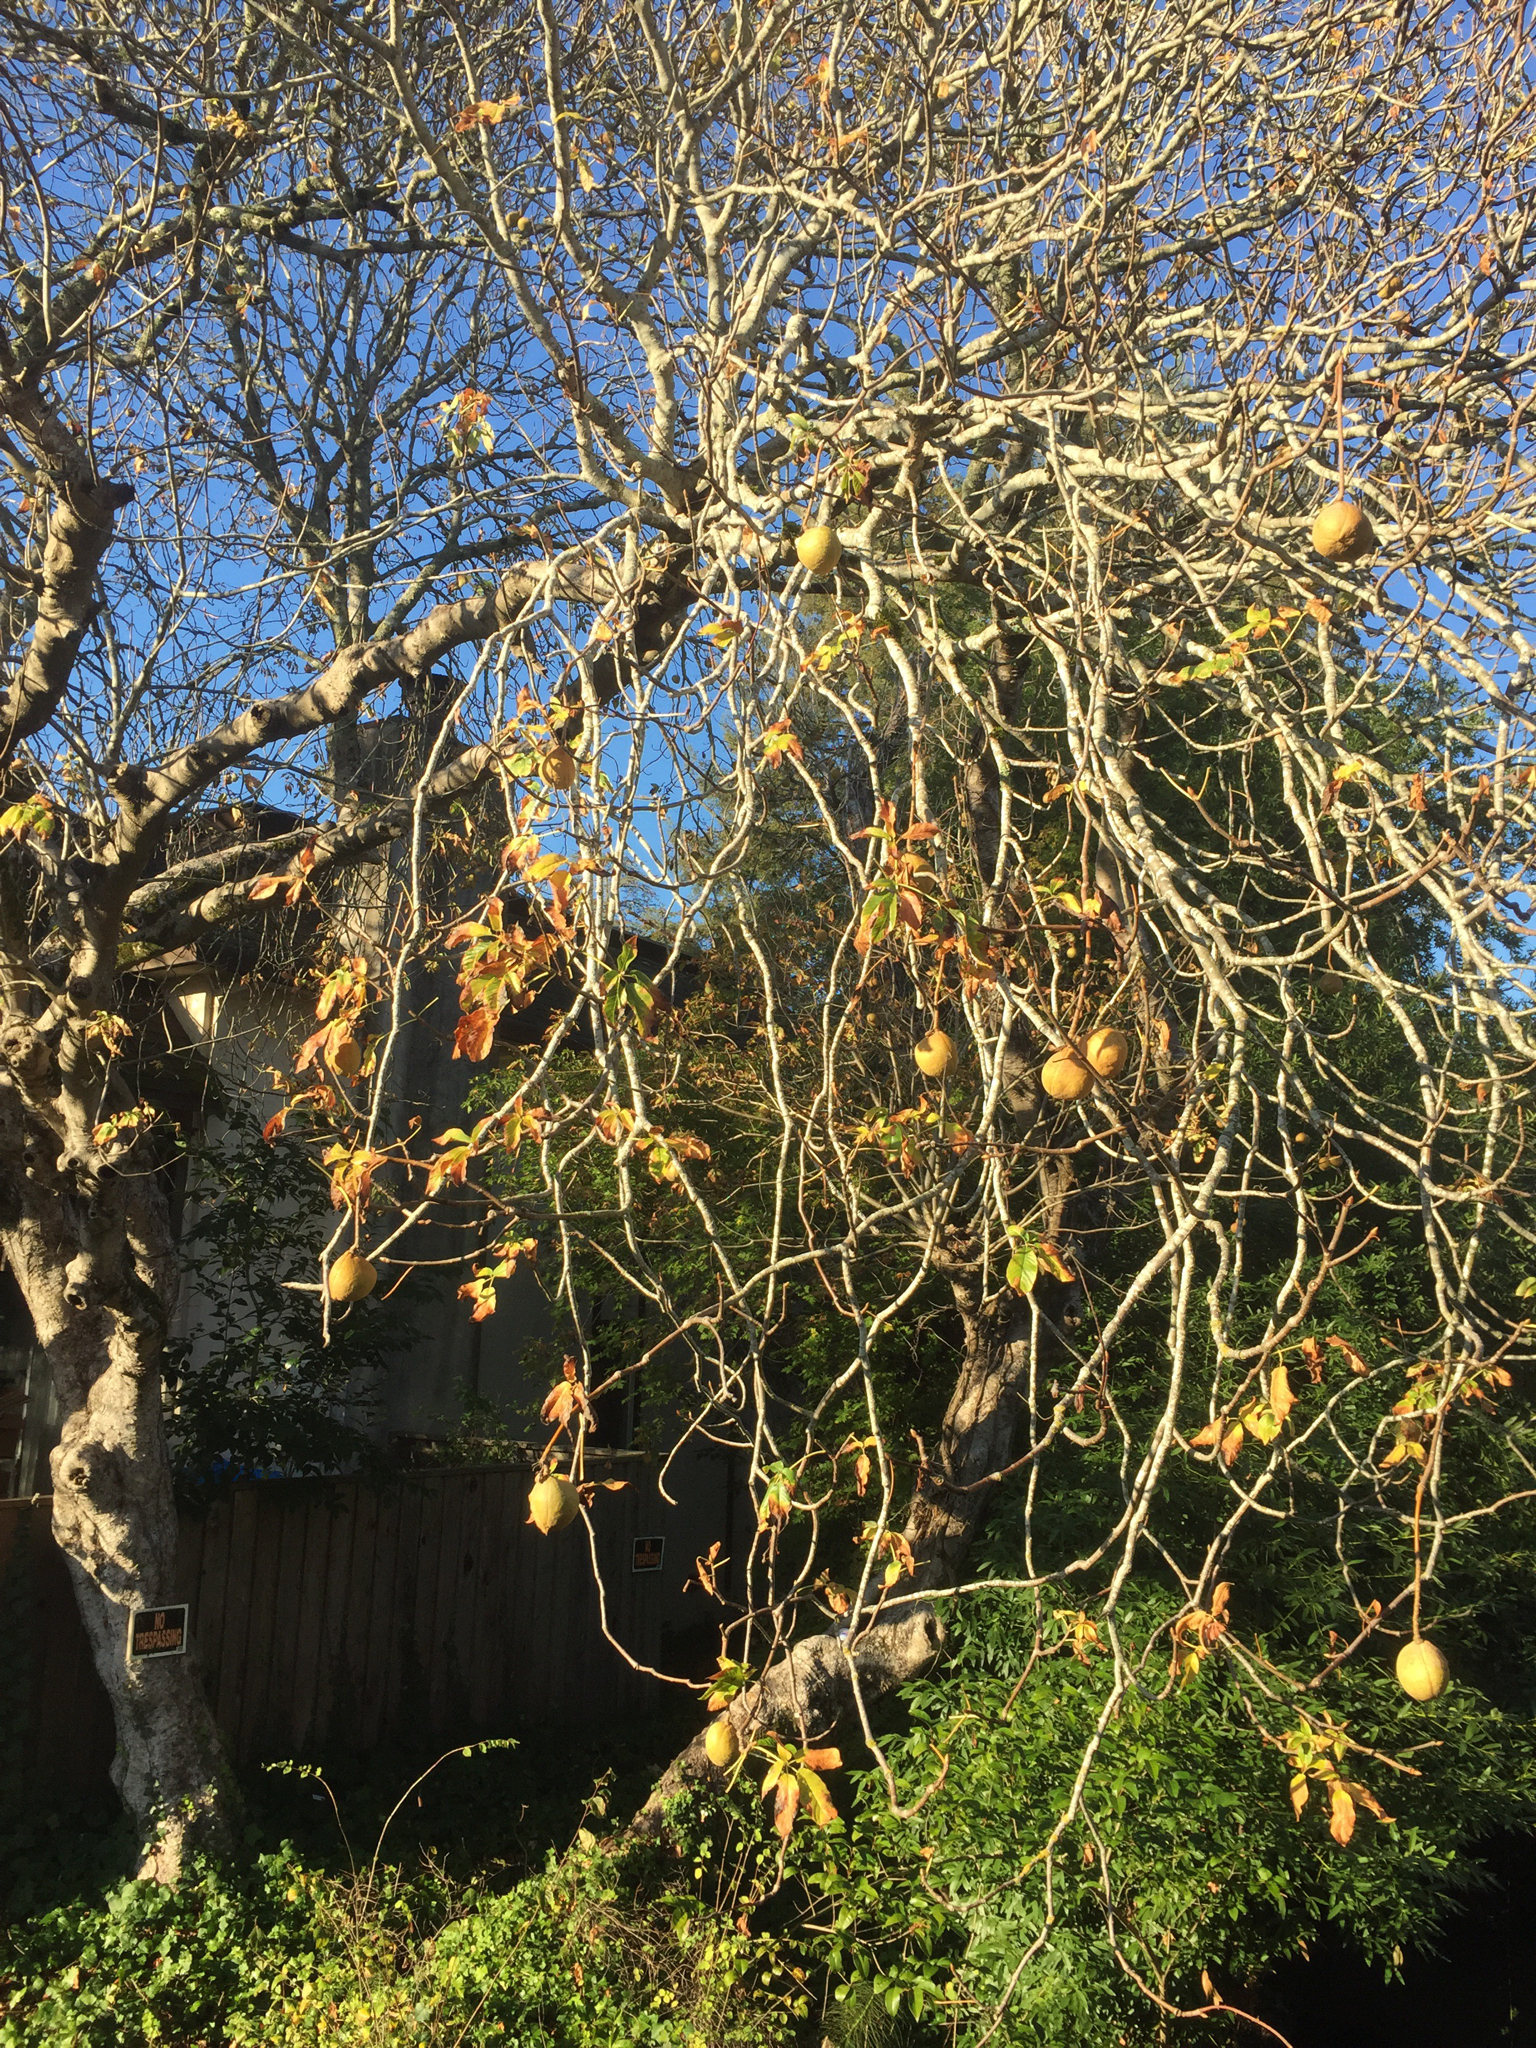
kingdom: Plantae
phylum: Tracheophyta
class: Magnoliopsida
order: Sapindales
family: Sapindaceae
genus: Aesculus
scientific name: Aesculus californica
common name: California buckeye
